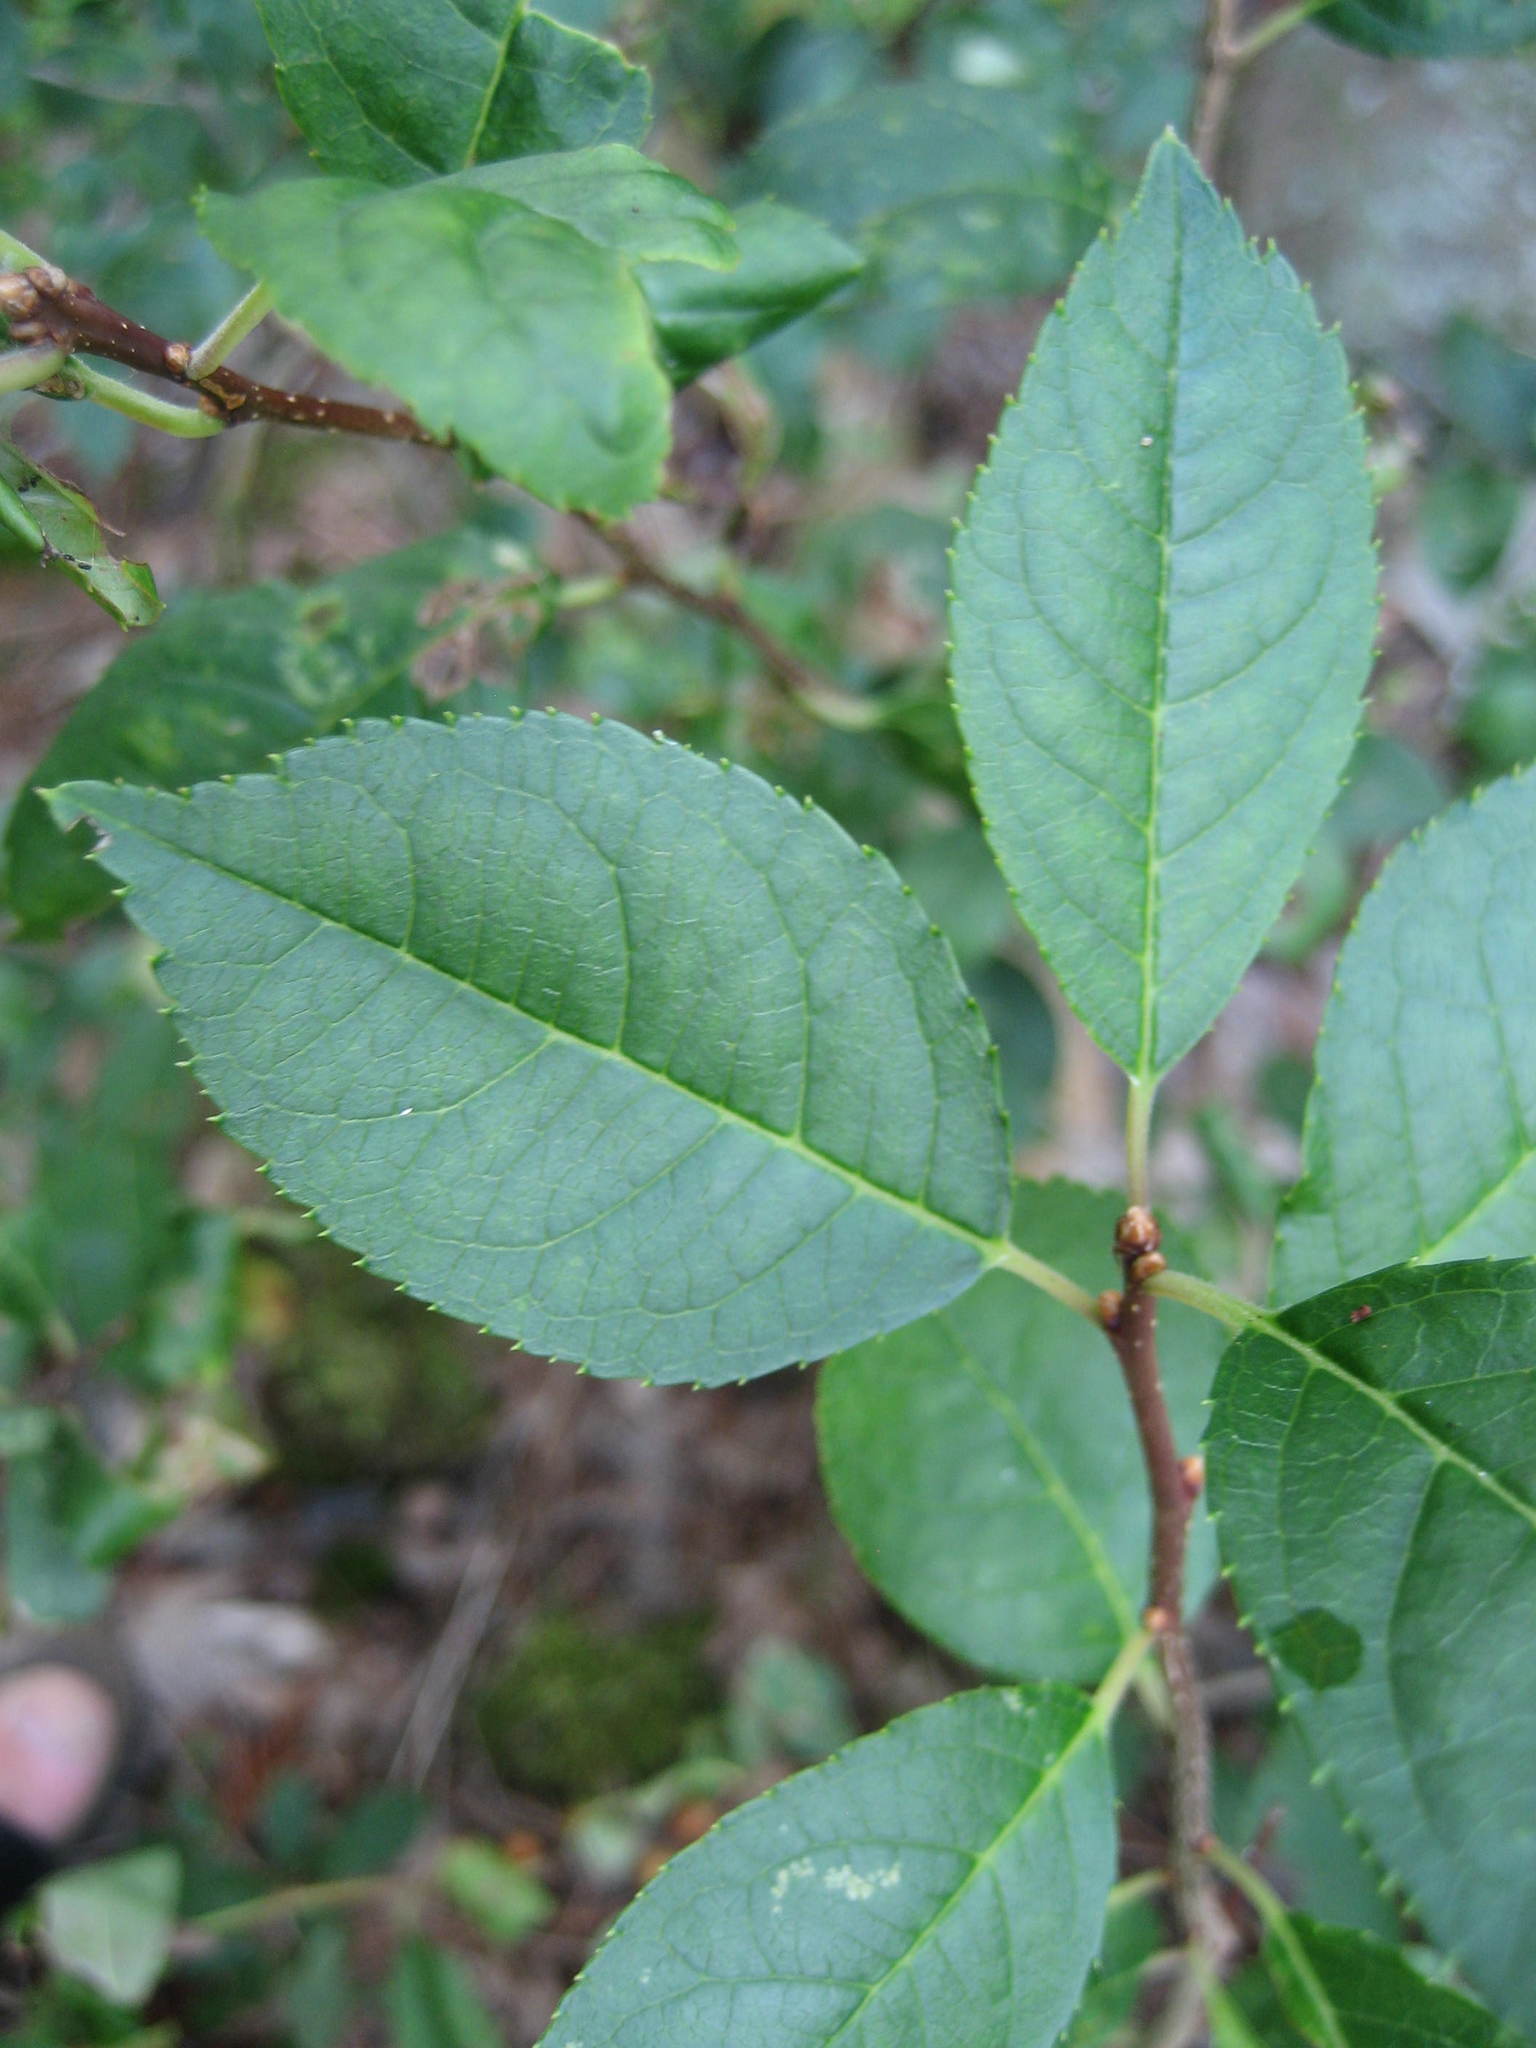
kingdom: Plantae
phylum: Tracheophyta
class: Magnoliopsida
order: Aquifoliales
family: Aquifoliaceae
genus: Ilex
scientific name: Ilex verticillata
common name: Virginia winterberry
